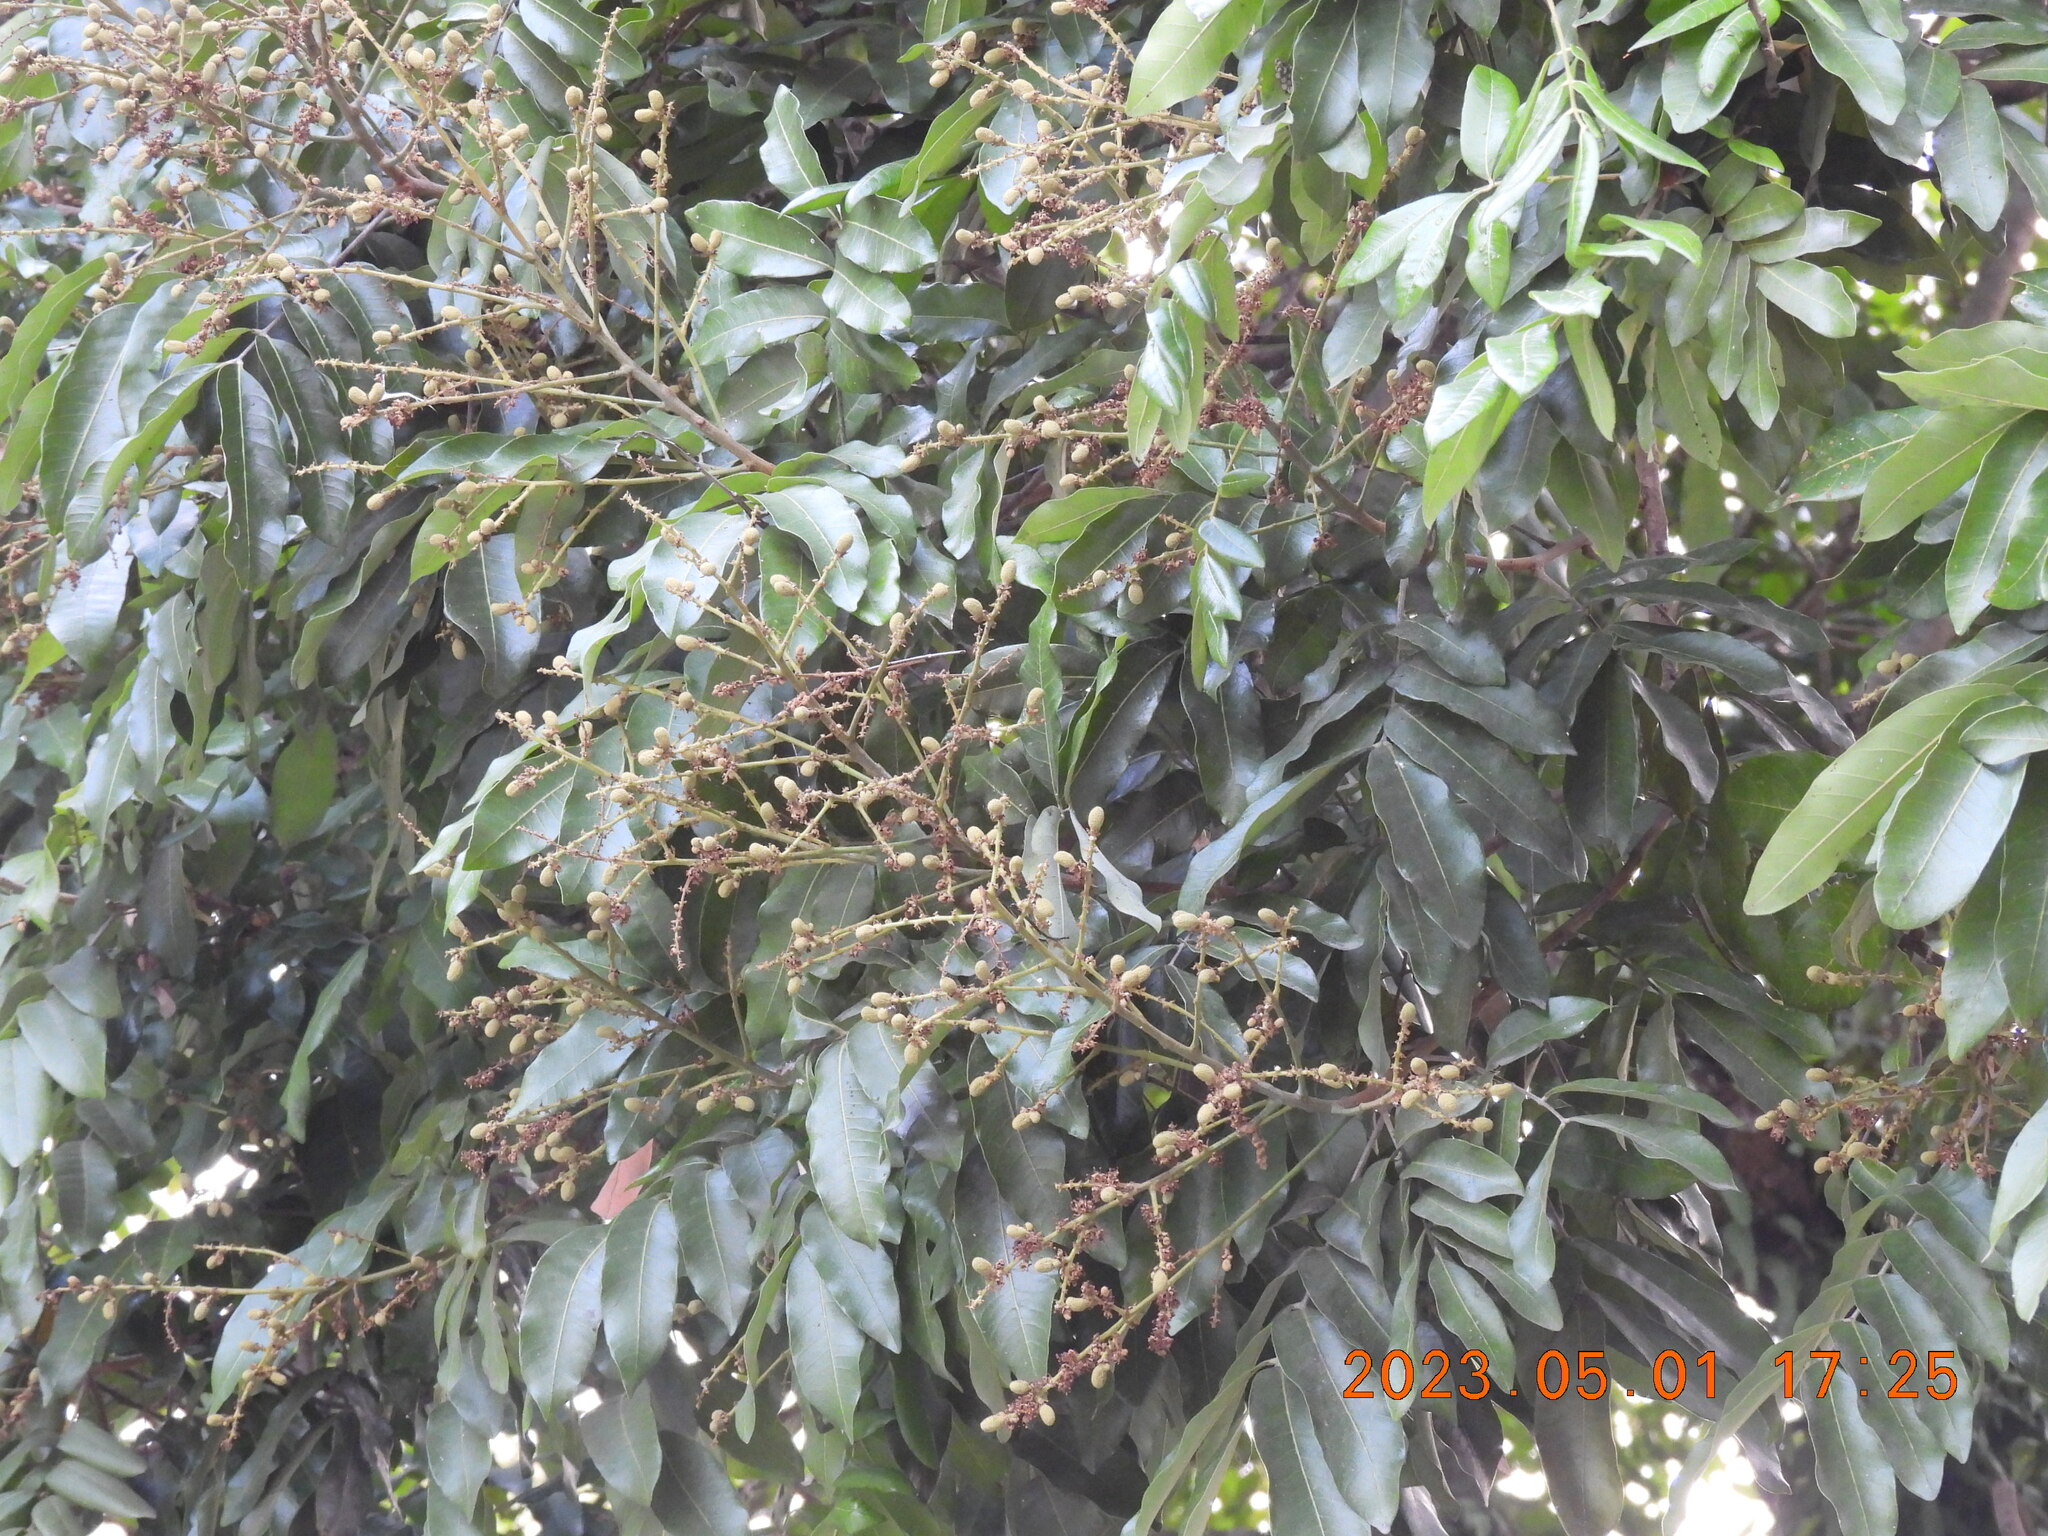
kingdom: Plantae
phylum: Tracheophyta
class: Magnoliopsida
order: Sapindales
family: Sapindaceae
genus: Dimocarpus
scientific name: Dimocarpus longan
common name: Longan
